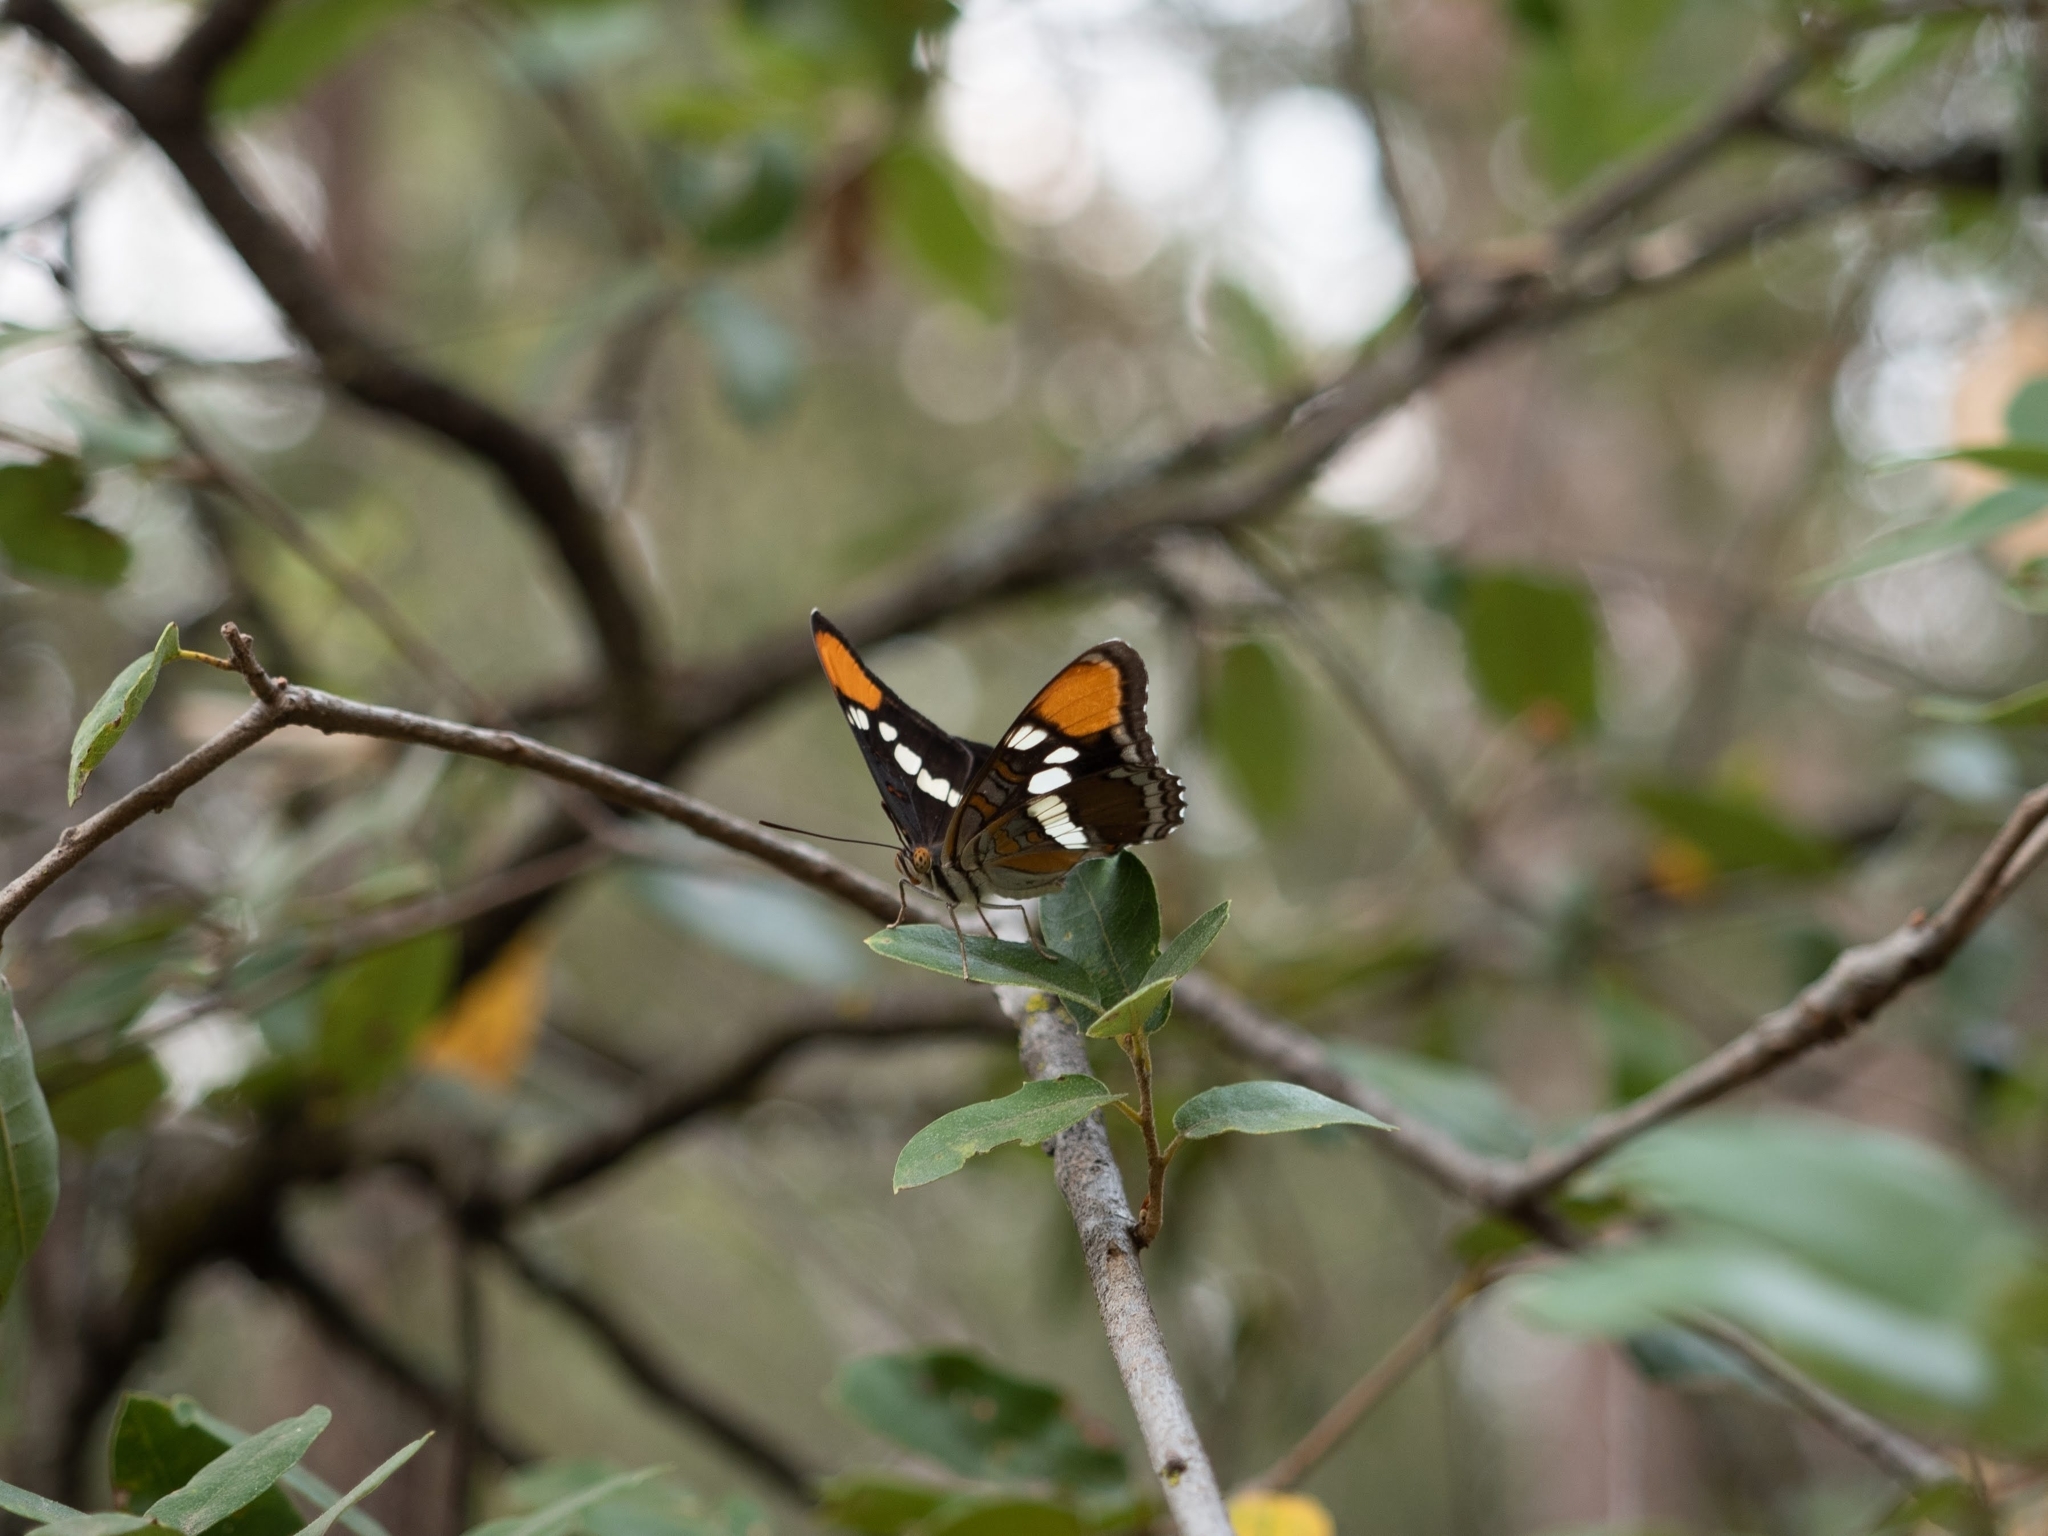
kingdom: Animalia
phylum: Arthropoda
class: Insecta
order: Lepidoptera
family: Nymphalidae
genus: Limenitis
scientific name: Limenitis bredowii
